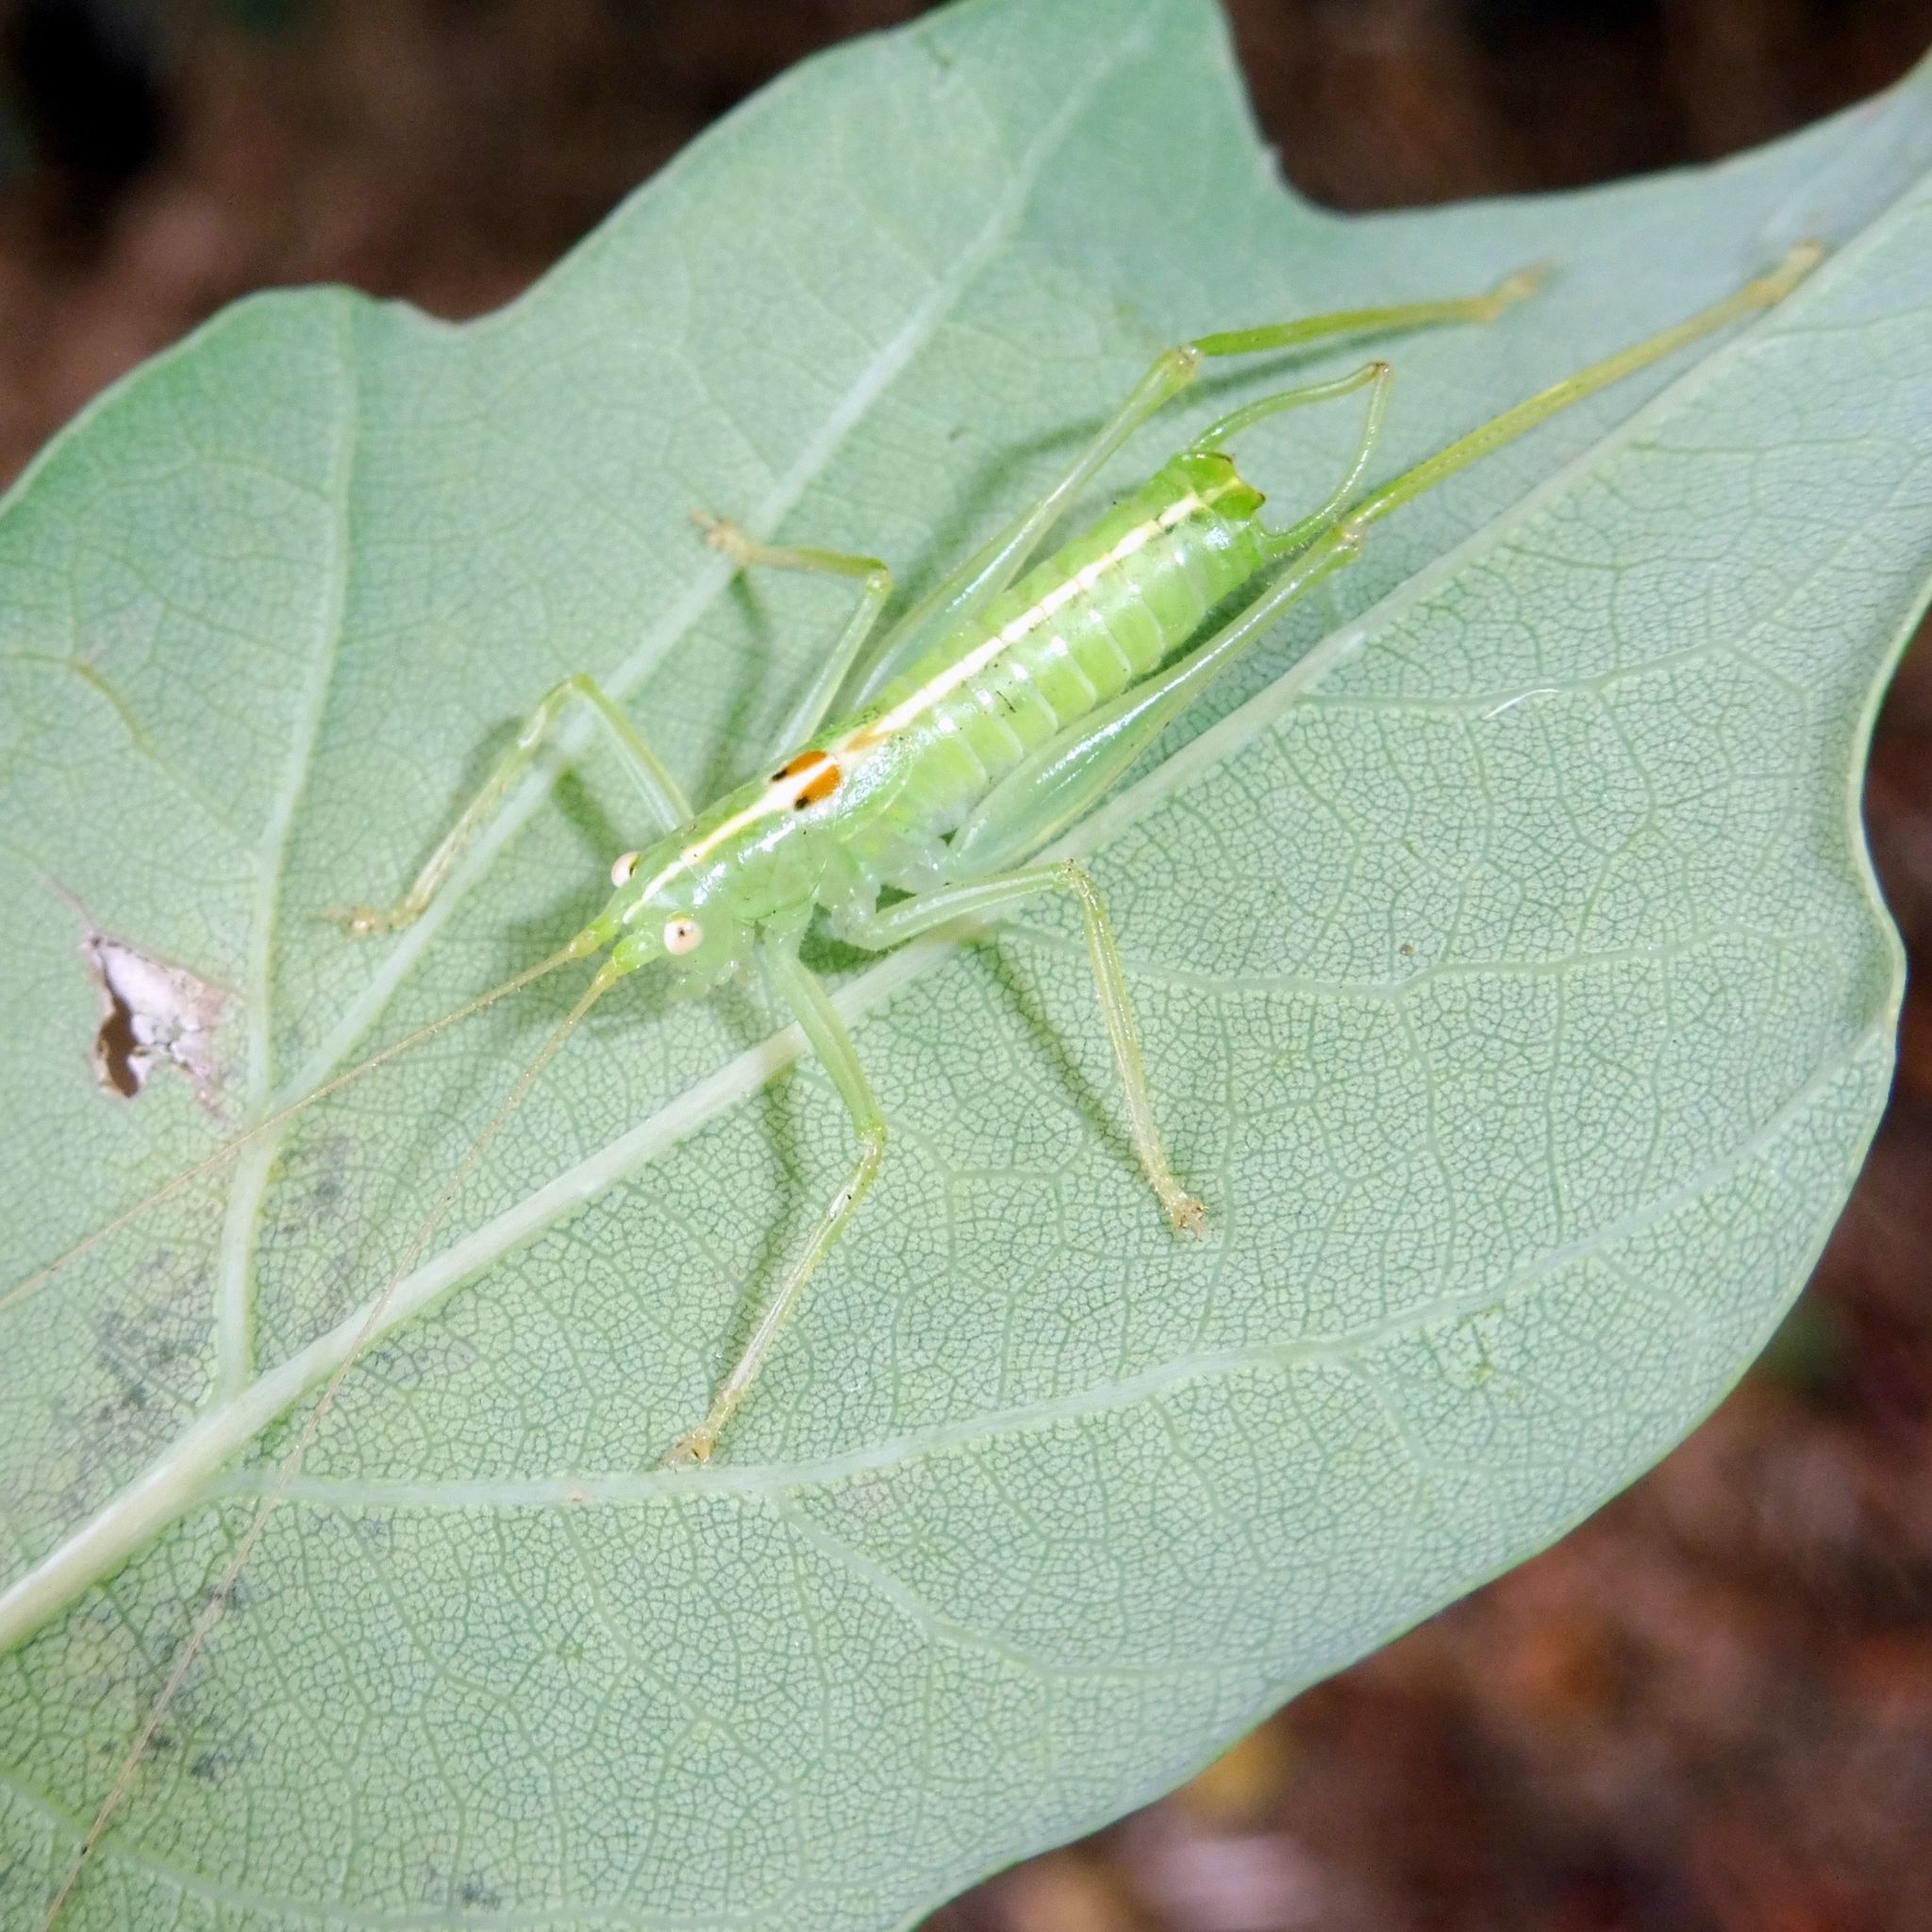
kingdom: Animalia
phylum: Arthropoda
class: Insecta
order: Orthoptera
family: Tettigoniidae
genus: Meconema
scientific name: Meconema meridionale
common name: Southern oak bush-cricket
